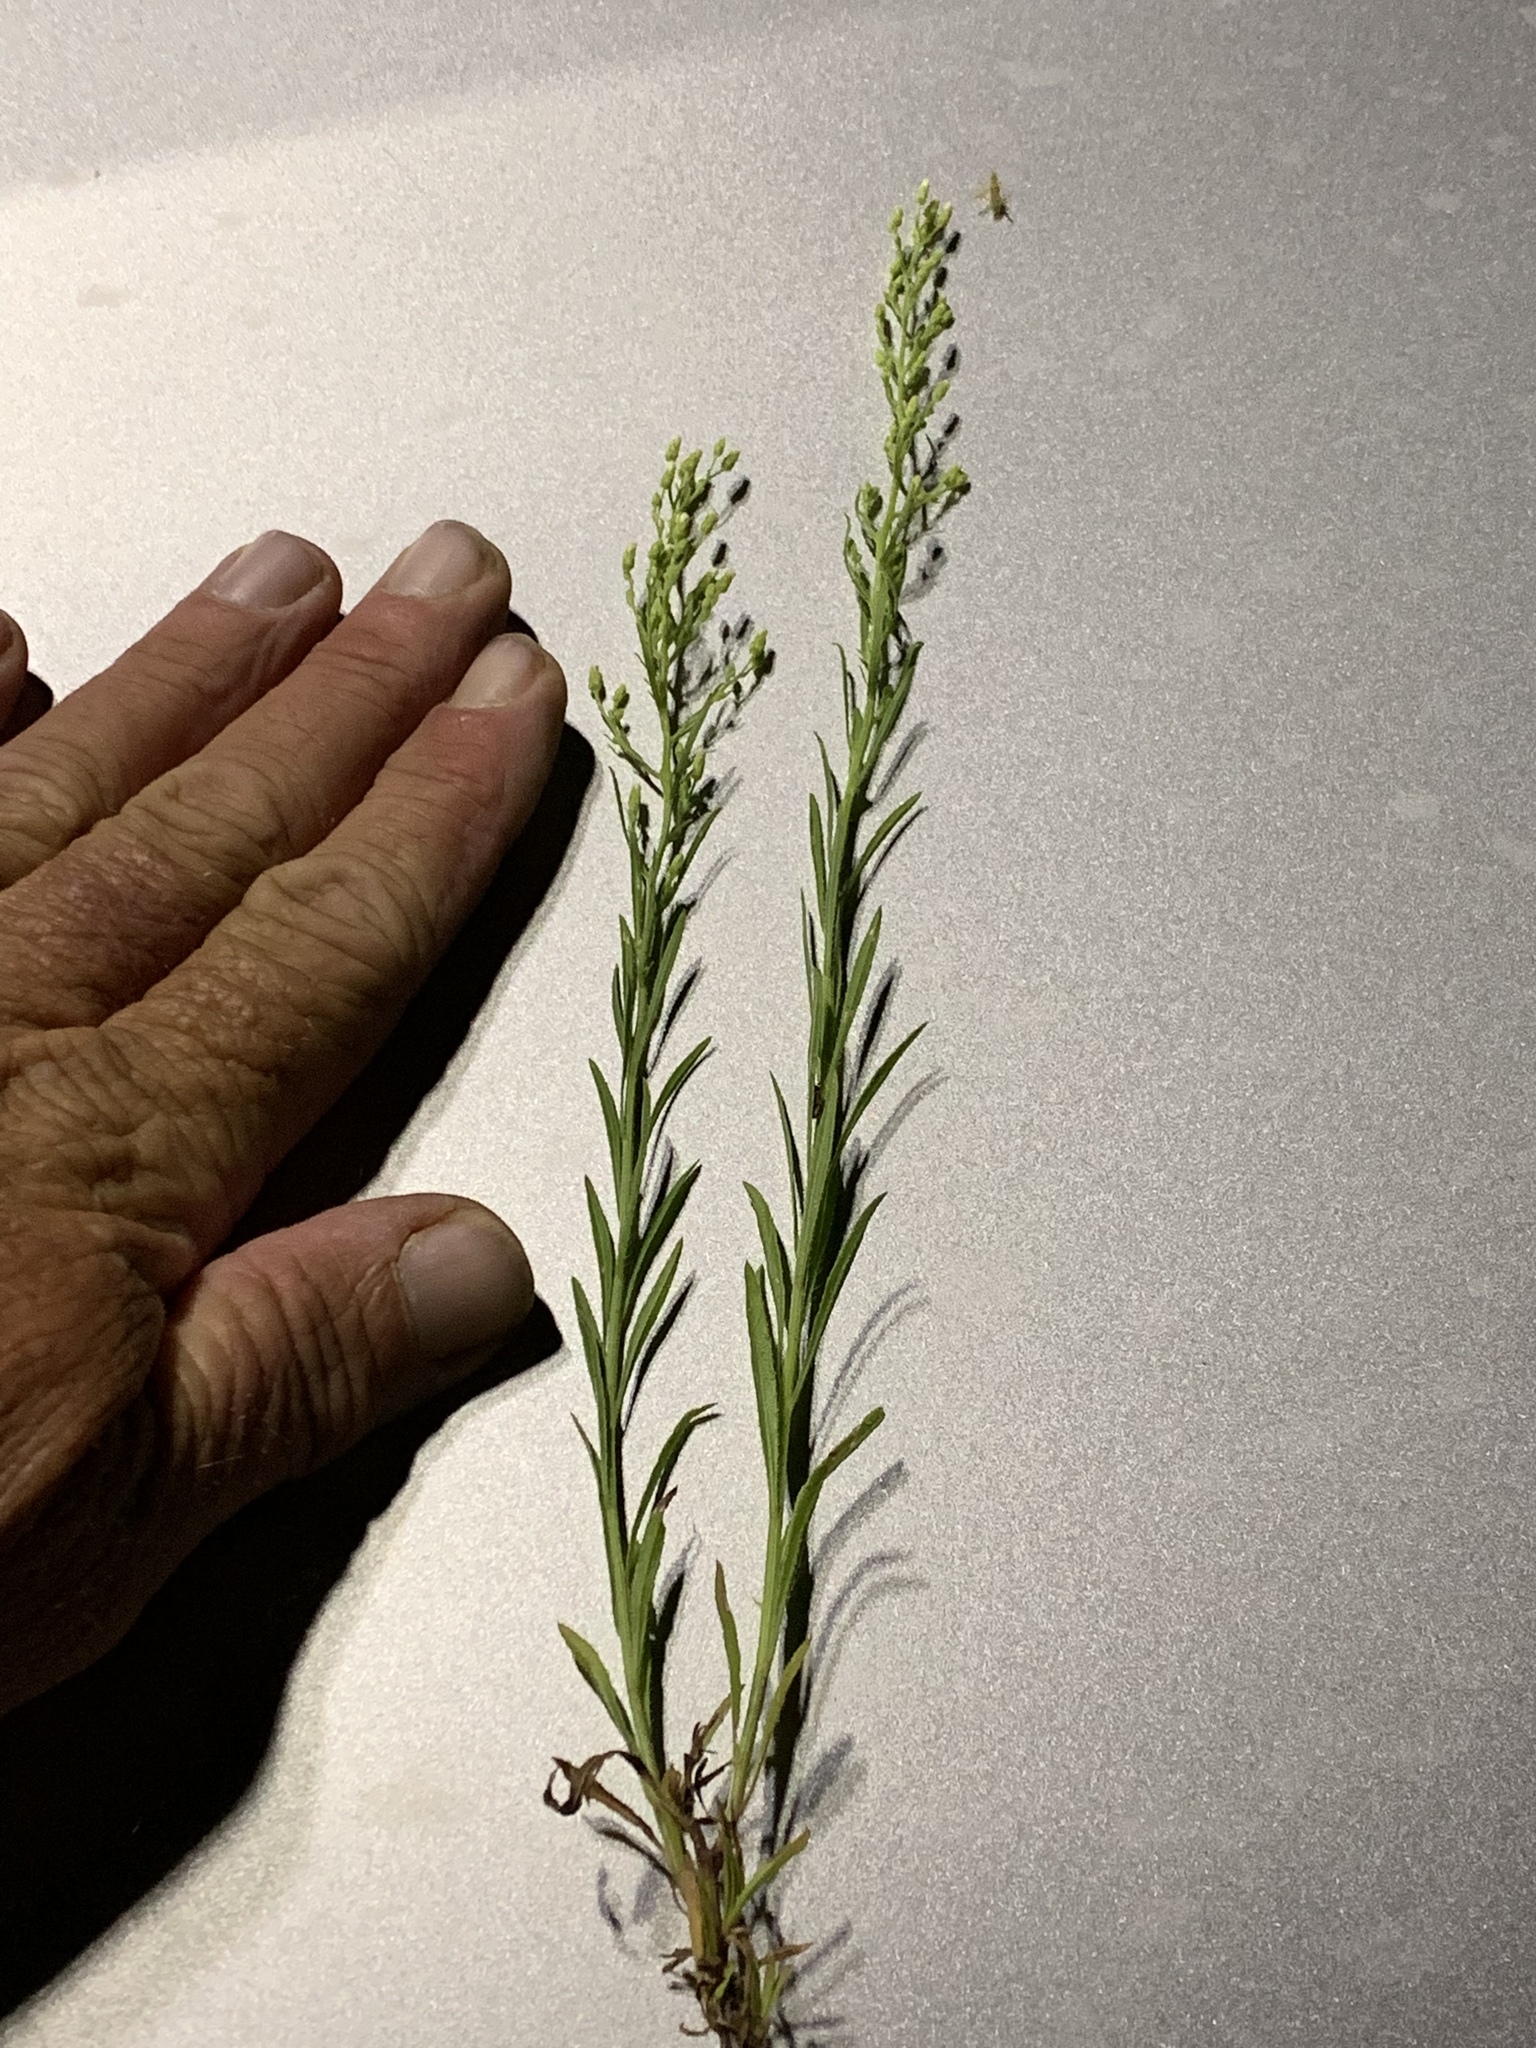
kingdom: Plantae
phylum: Tracheophyta
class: Magnoliopsida
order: Asterales
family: Asteraceae
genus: Erigeron
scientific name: Erigeron canadensis
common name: Canadian fleabane
